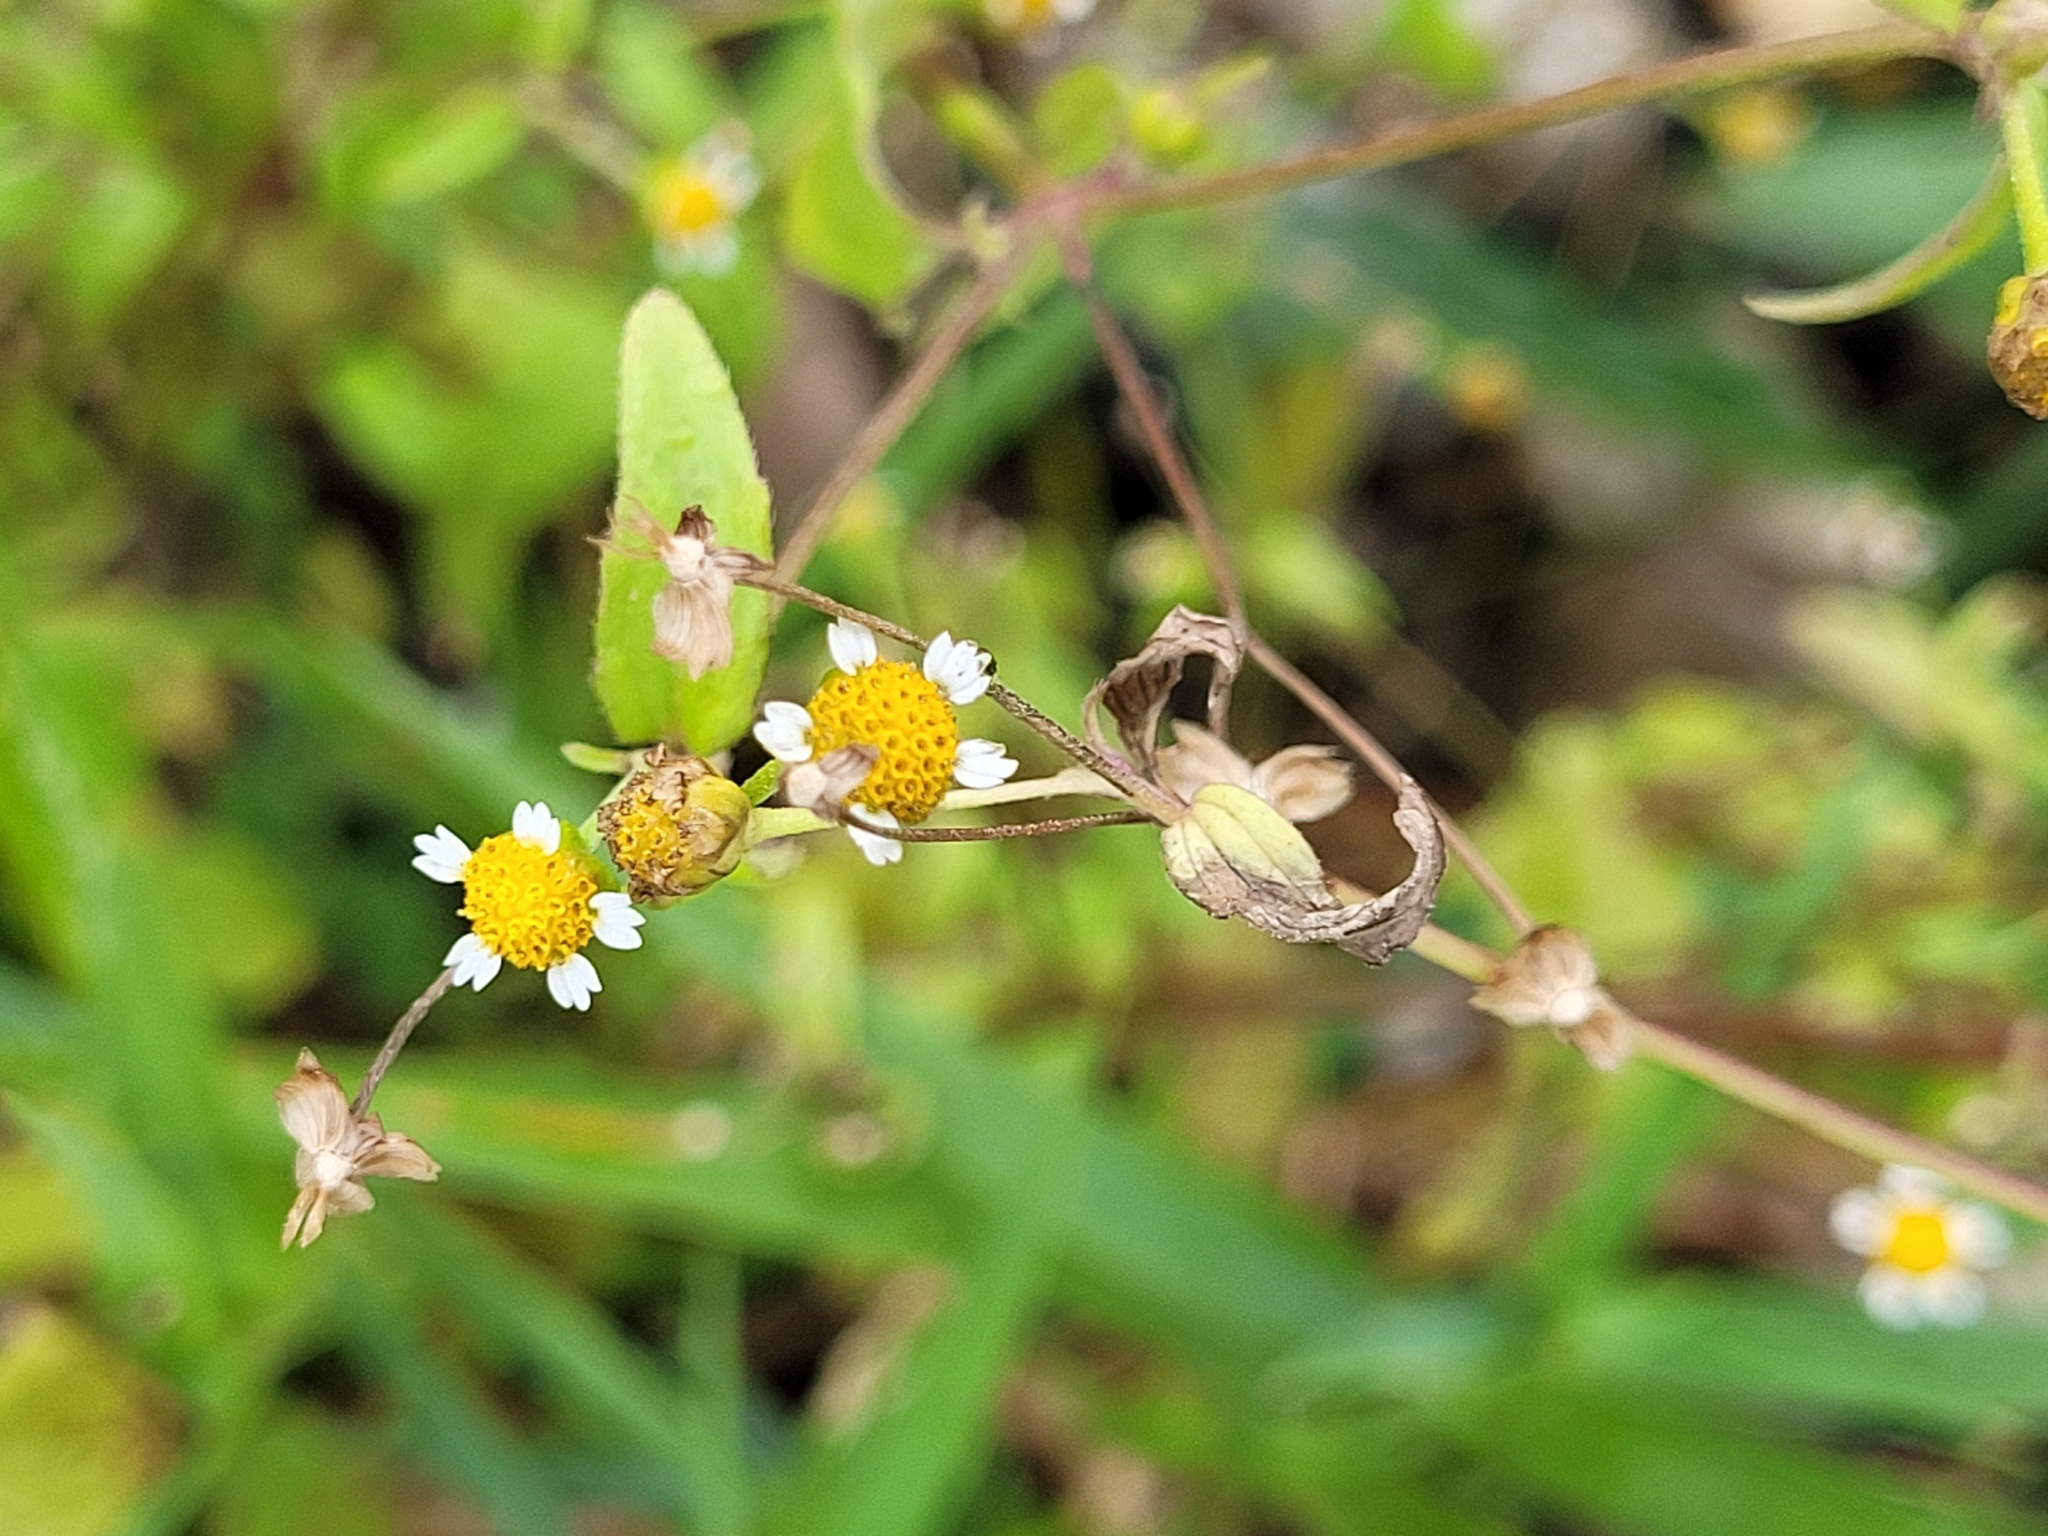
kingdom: Plantae
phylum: Tracheophyta
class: Magnoliopsida
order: Asterales
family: Asteraceae
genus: Galinsoga
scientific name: Galinsoga parviflora
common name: Gallant soldier
